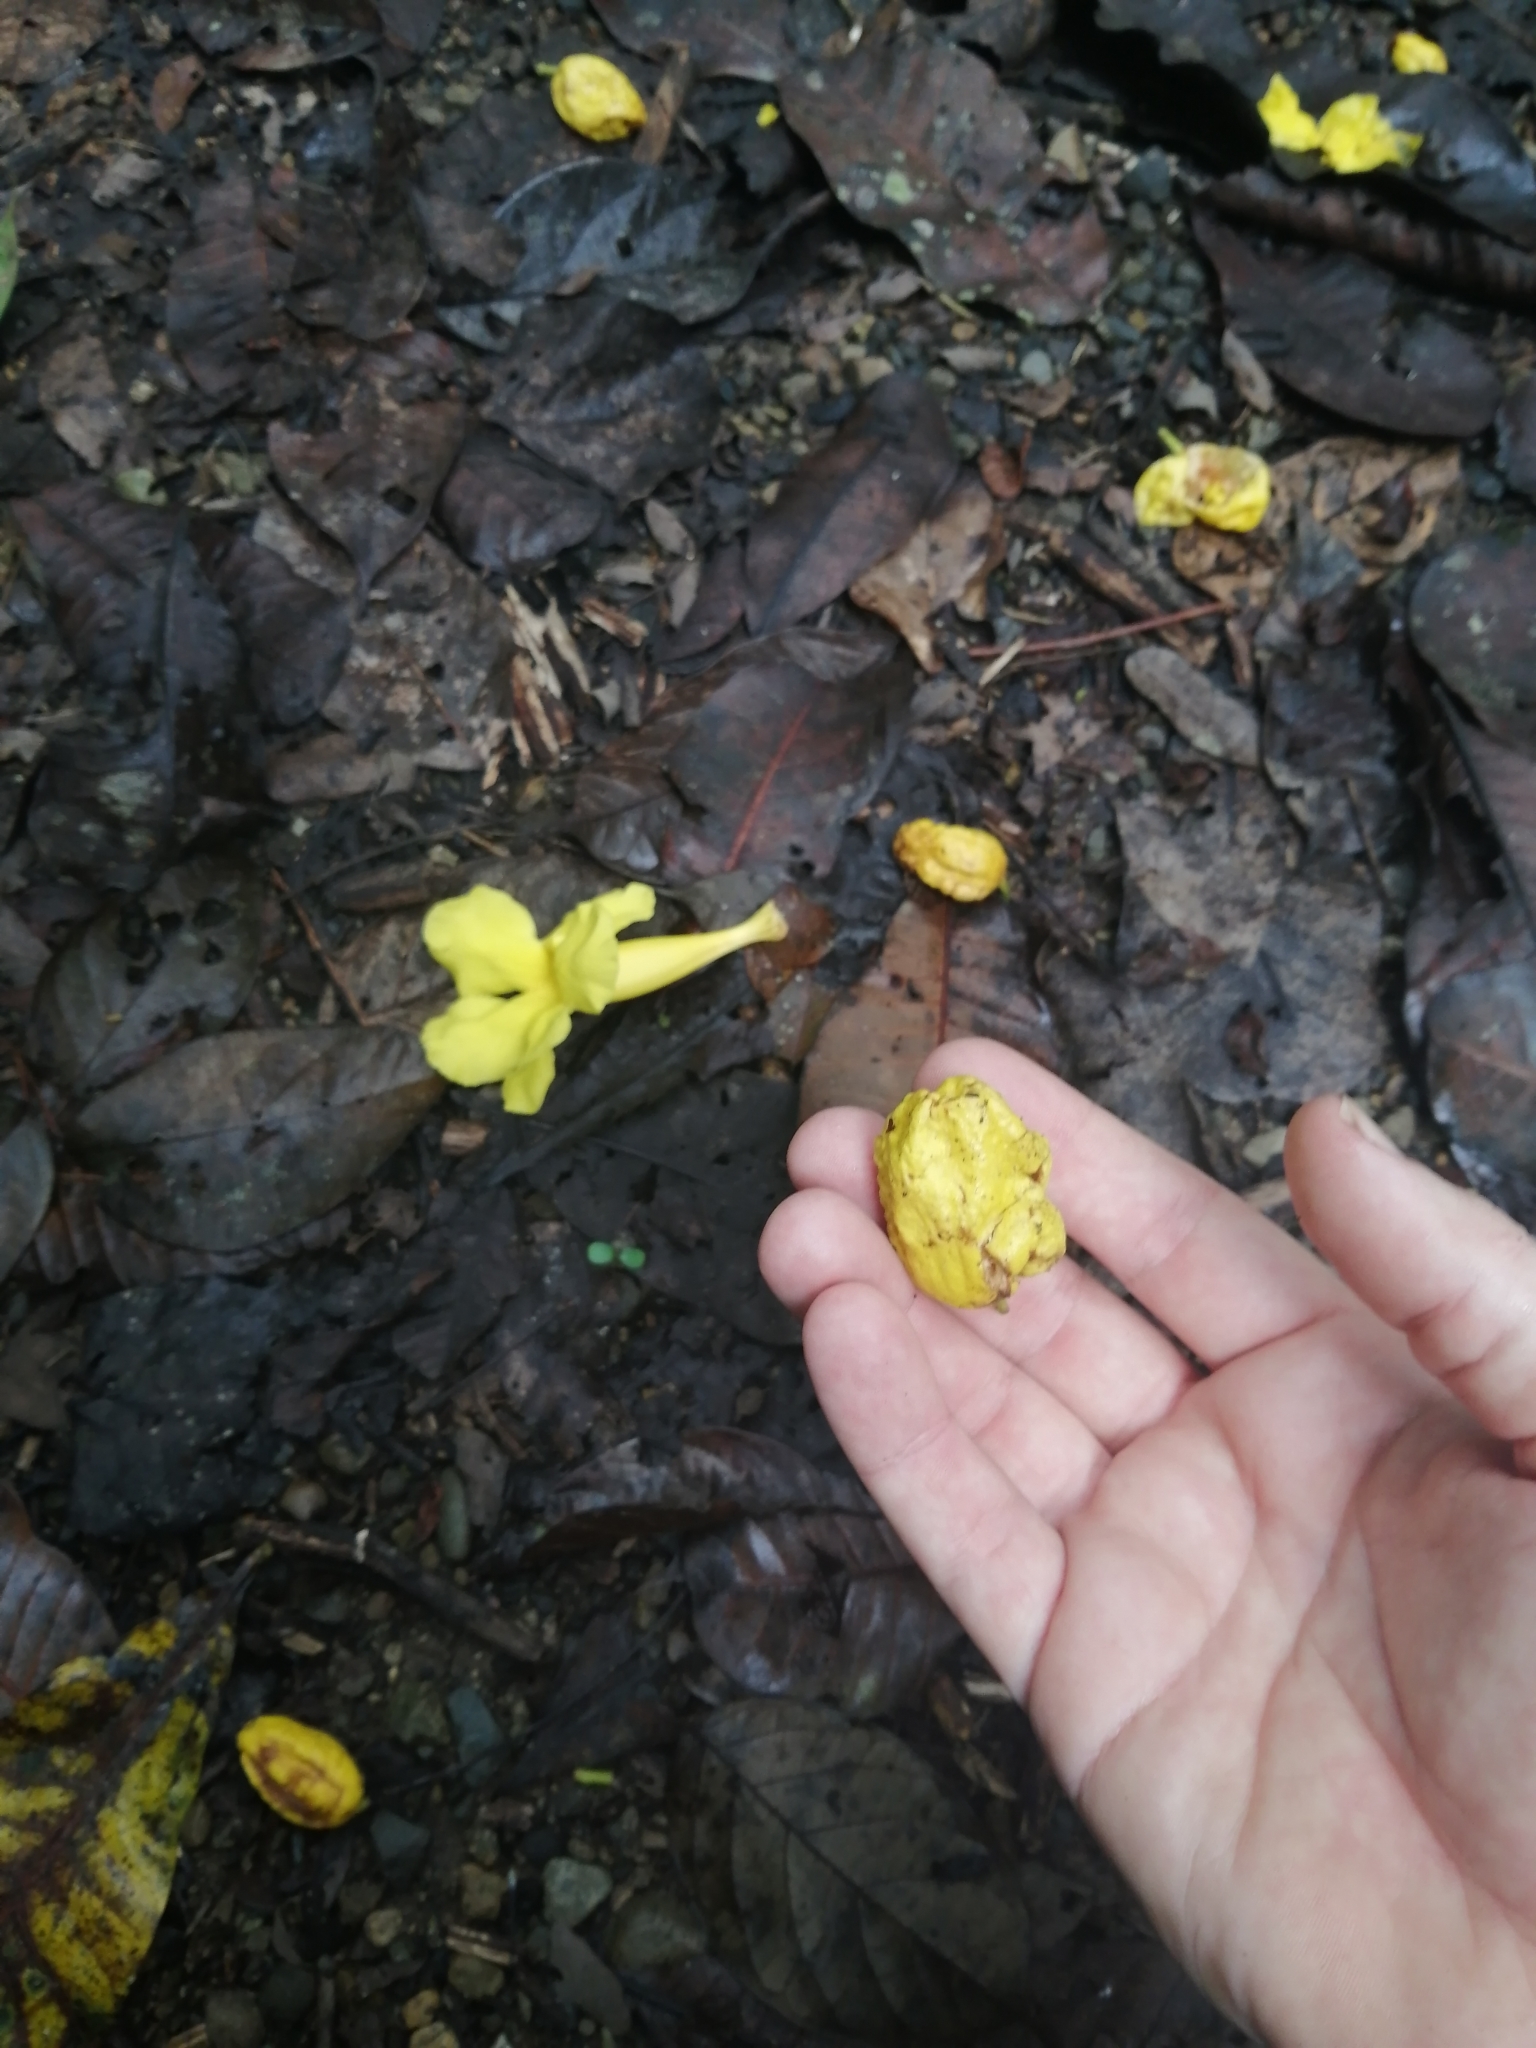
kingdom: Plantae
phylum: Tracheophyta
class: Magnoliopsida
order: Lamiales
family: Bignoniaceae
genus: Callichlamys
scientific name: Callichlamys latifolia
